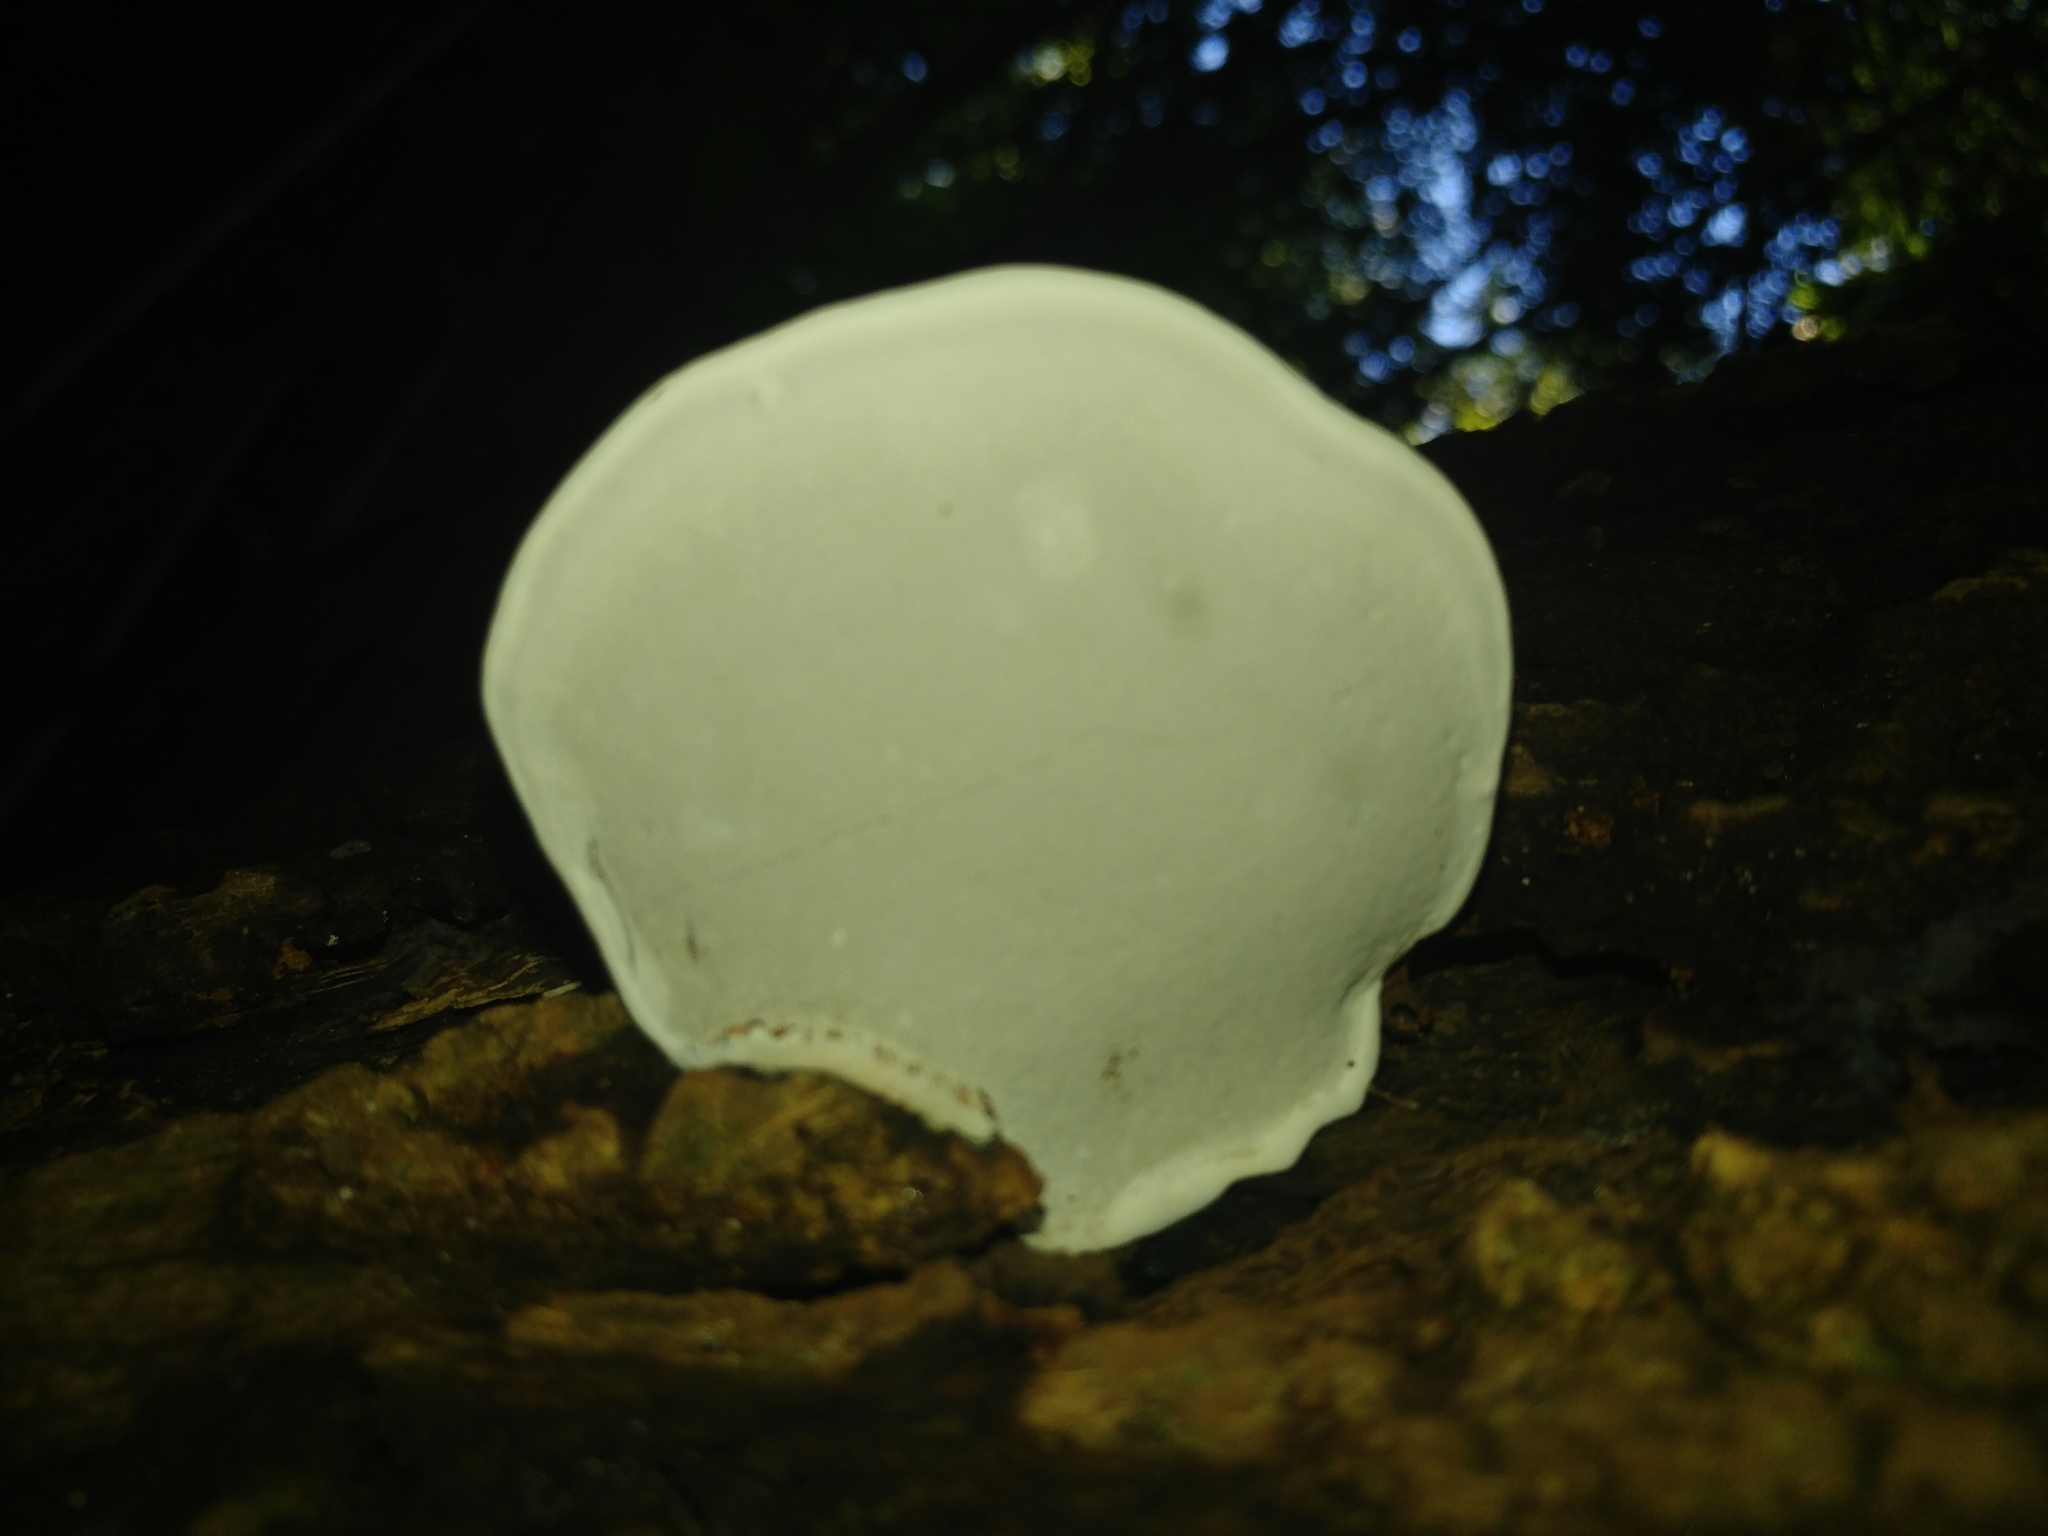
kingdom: Fungi
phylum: Basidiomycota
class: Agaricomycetes
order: Polyporales
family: Polyporaceae
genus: Ganoderma
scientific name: Ganoderma applanatum
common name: Artist's bracket
